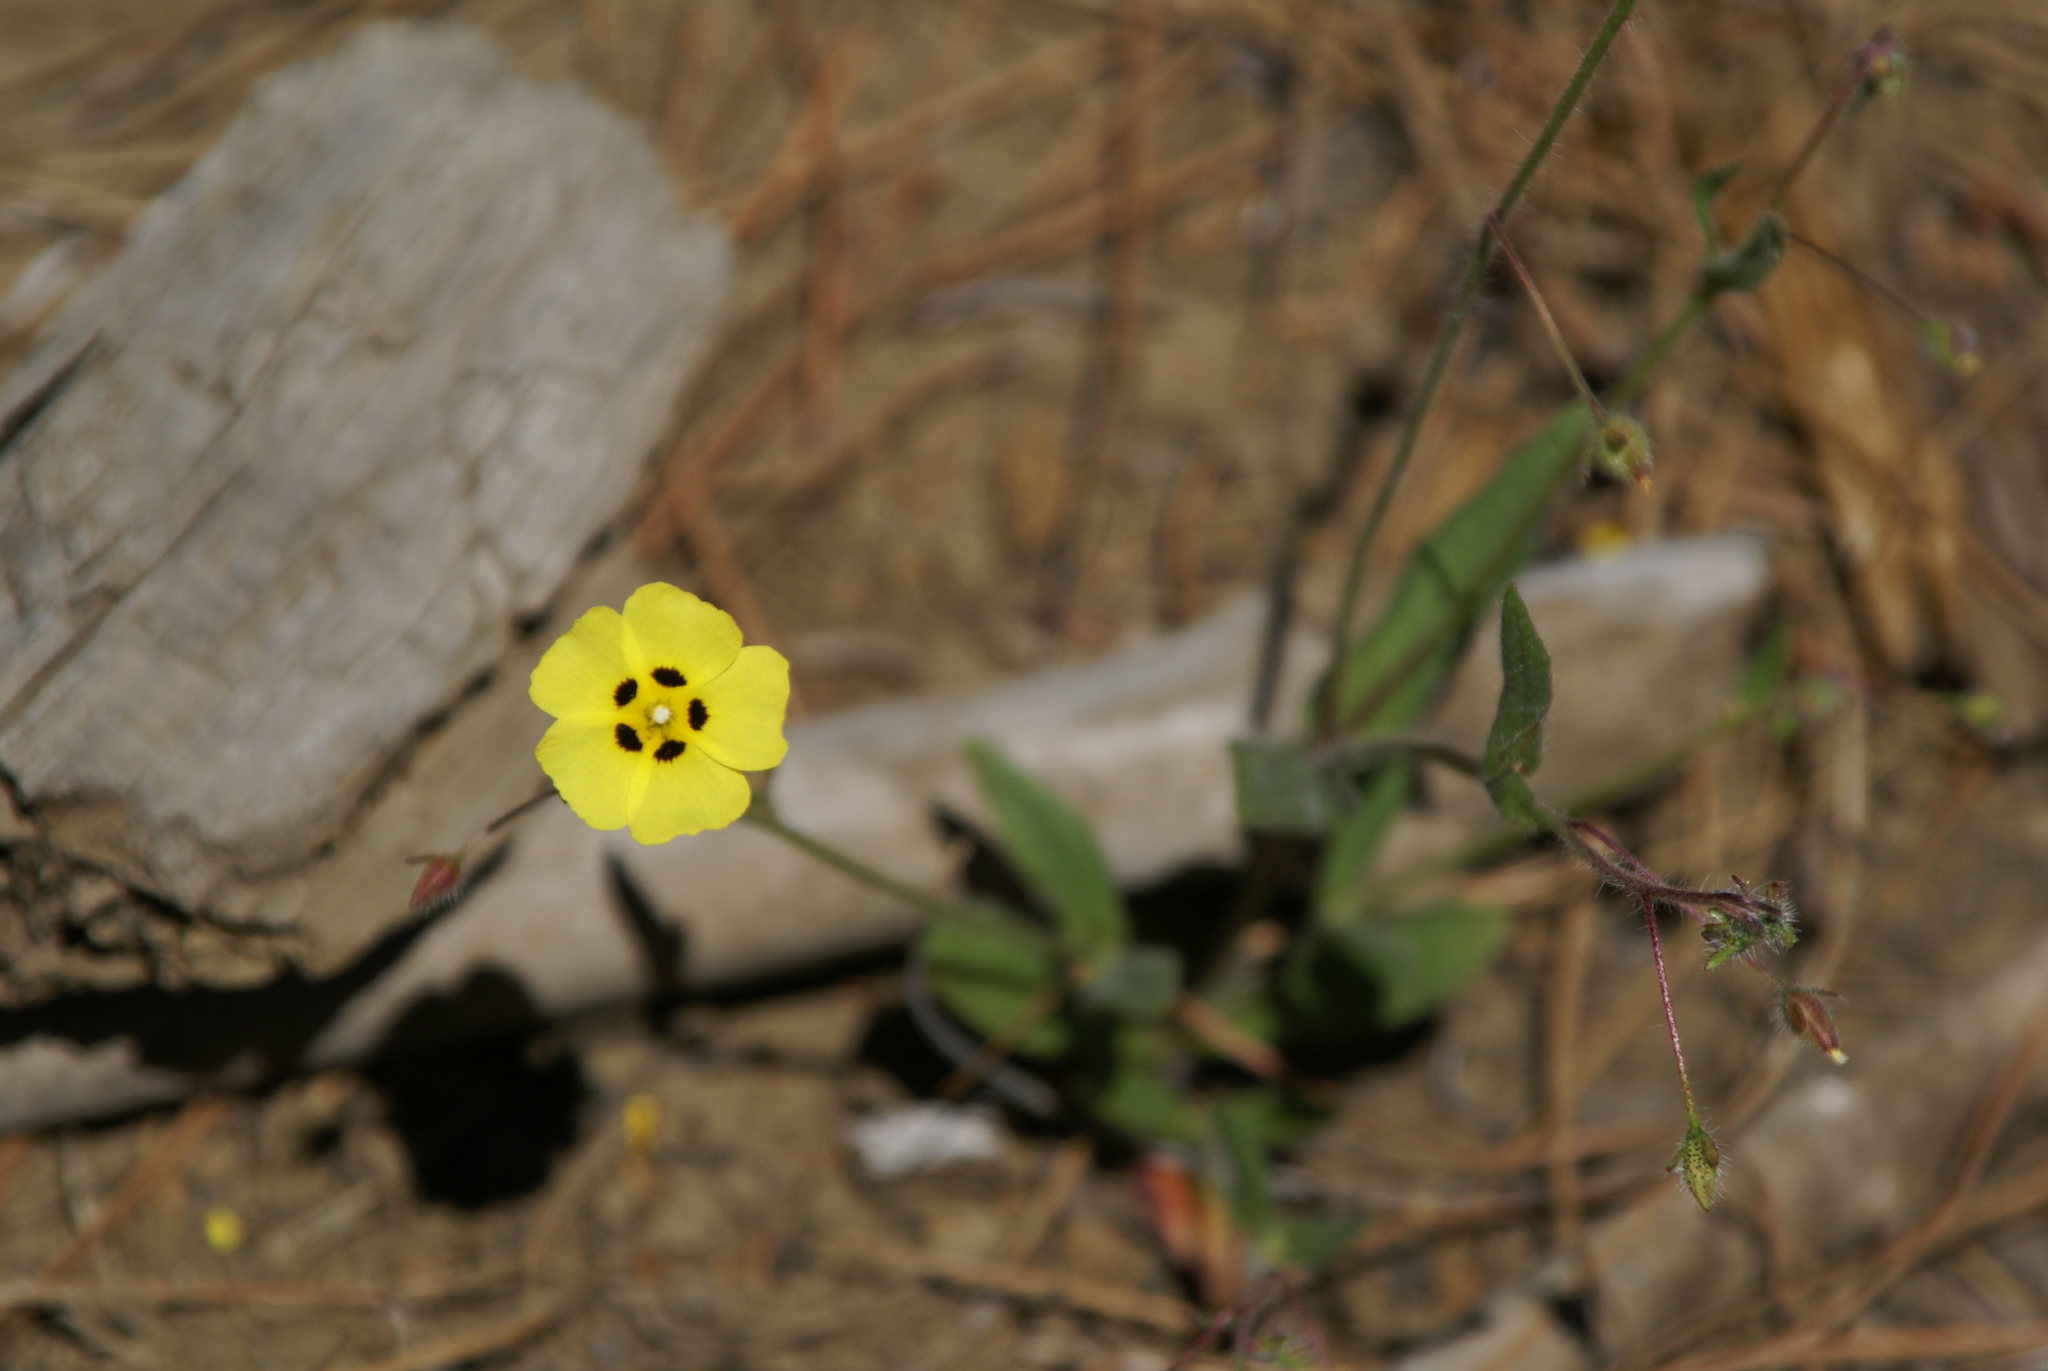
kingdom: Plantae
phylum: Tracheophyta
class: Magnoliopsida
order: Malvales
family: Cistaceae
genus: Tuberaria
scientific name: Tuberaria guttata
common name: Spotted rock-rose
